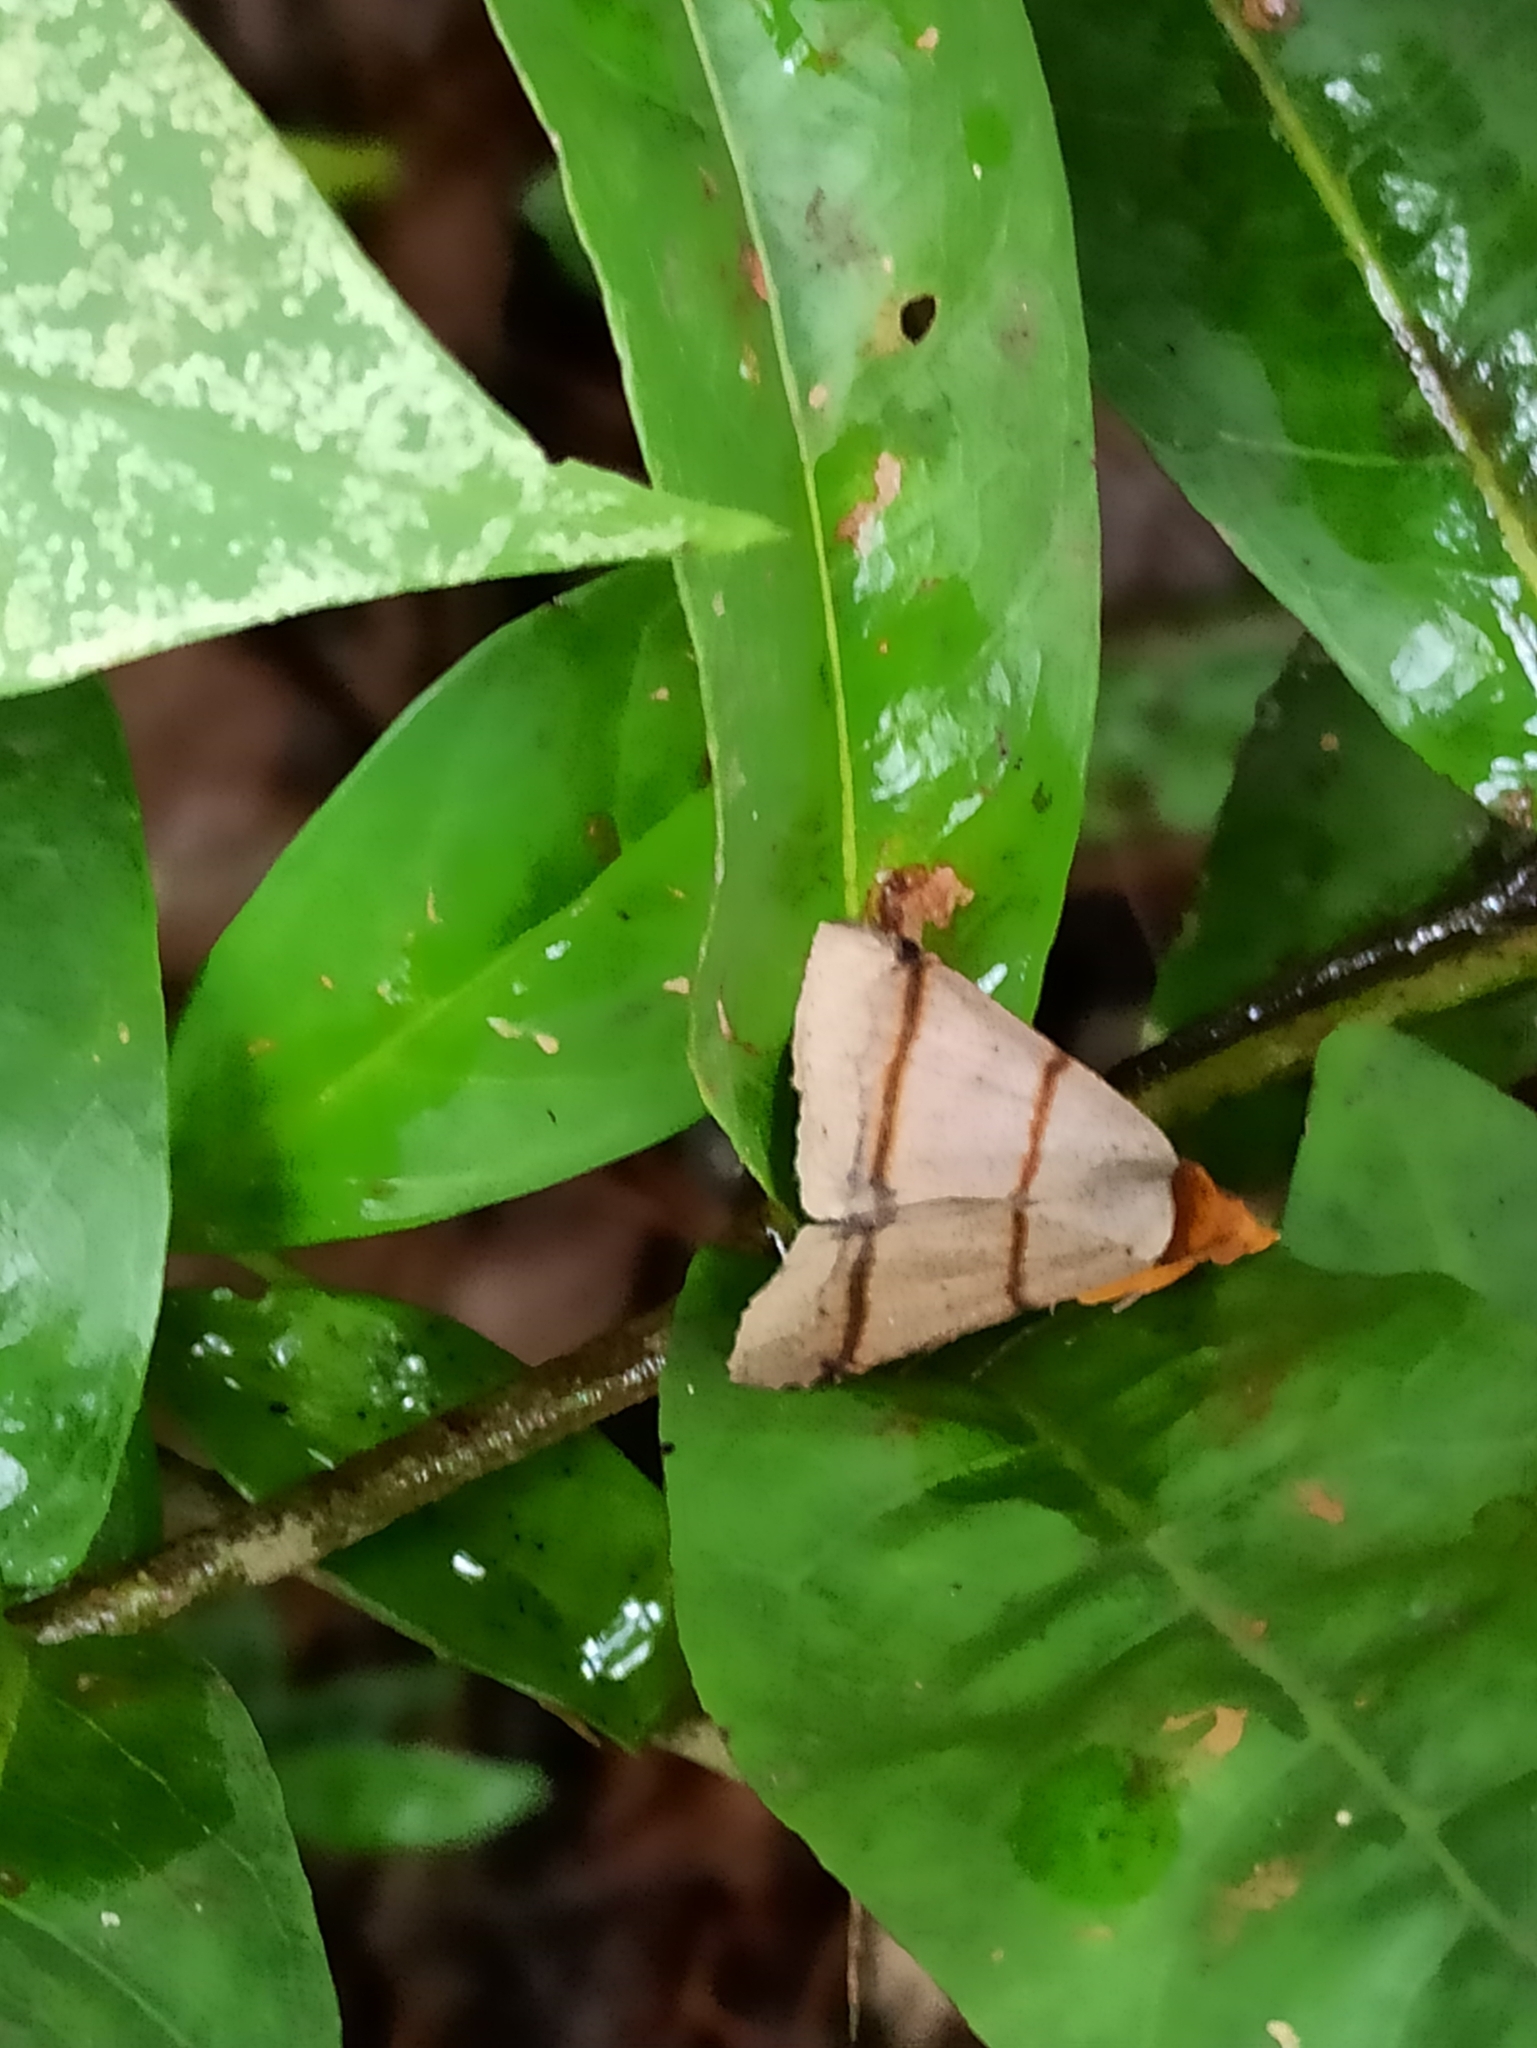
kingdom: Animalia
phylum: Arthropoda
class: Insecta
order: Lepidoptera
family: Erebidae
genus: Plecoptera
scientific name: Plecoptera recta
